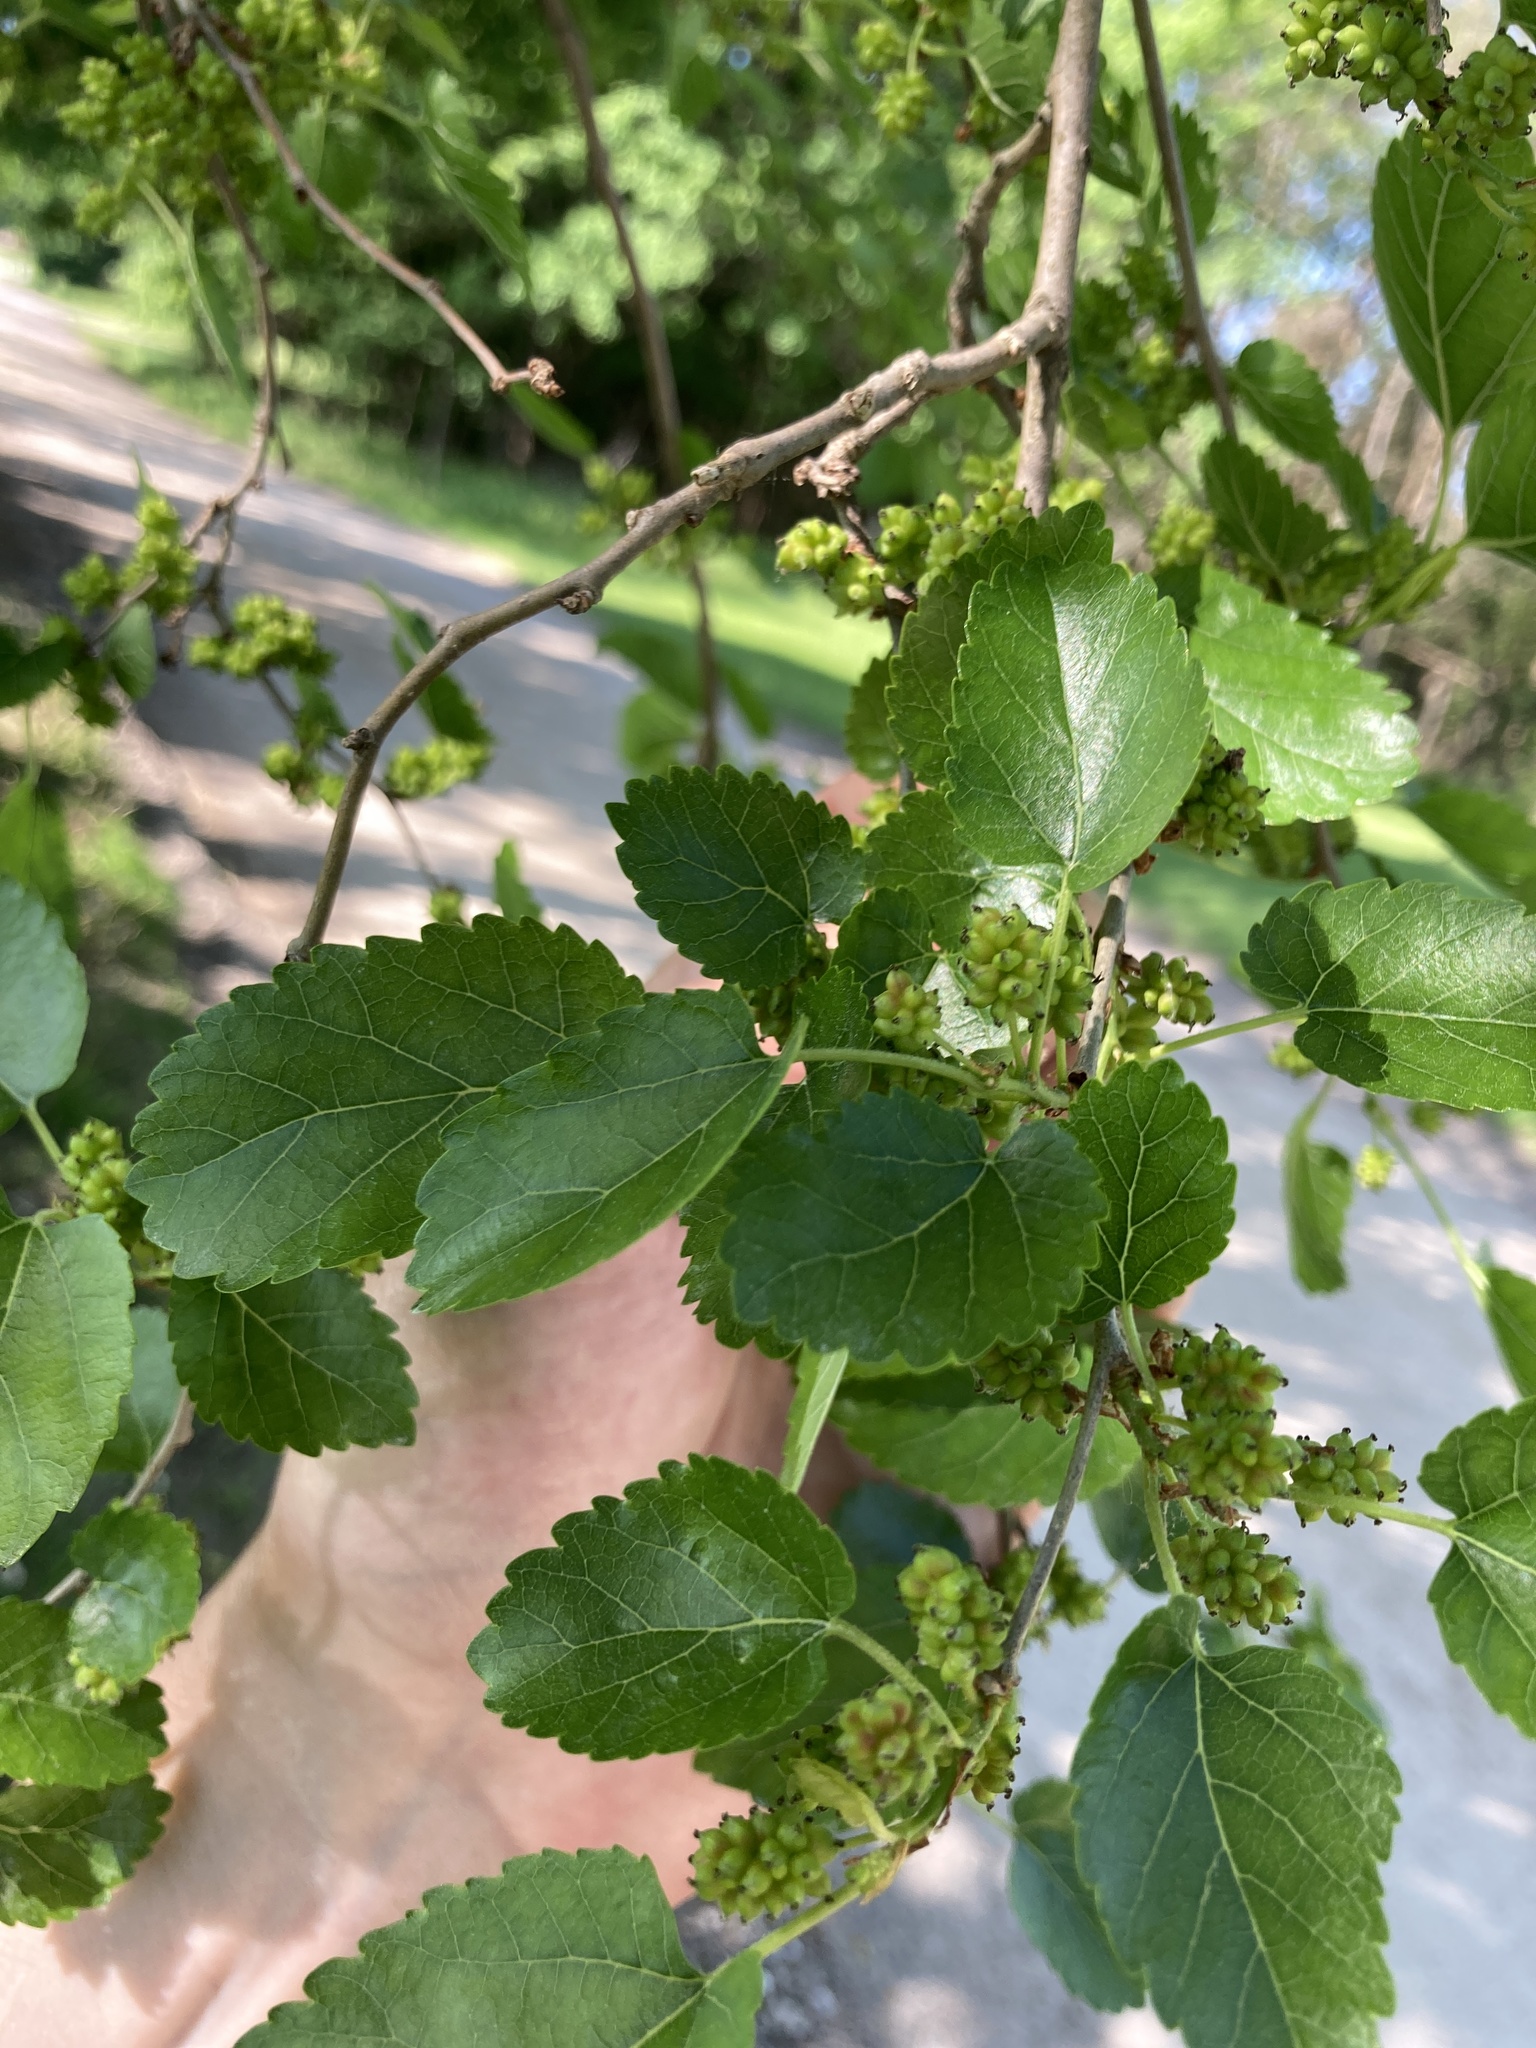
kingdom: Plantae
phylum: Tracheophyta
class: Magnoliopsida
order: Rosales
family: Moraceae
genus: Morus
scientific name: Morus alba
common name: White mulberry
